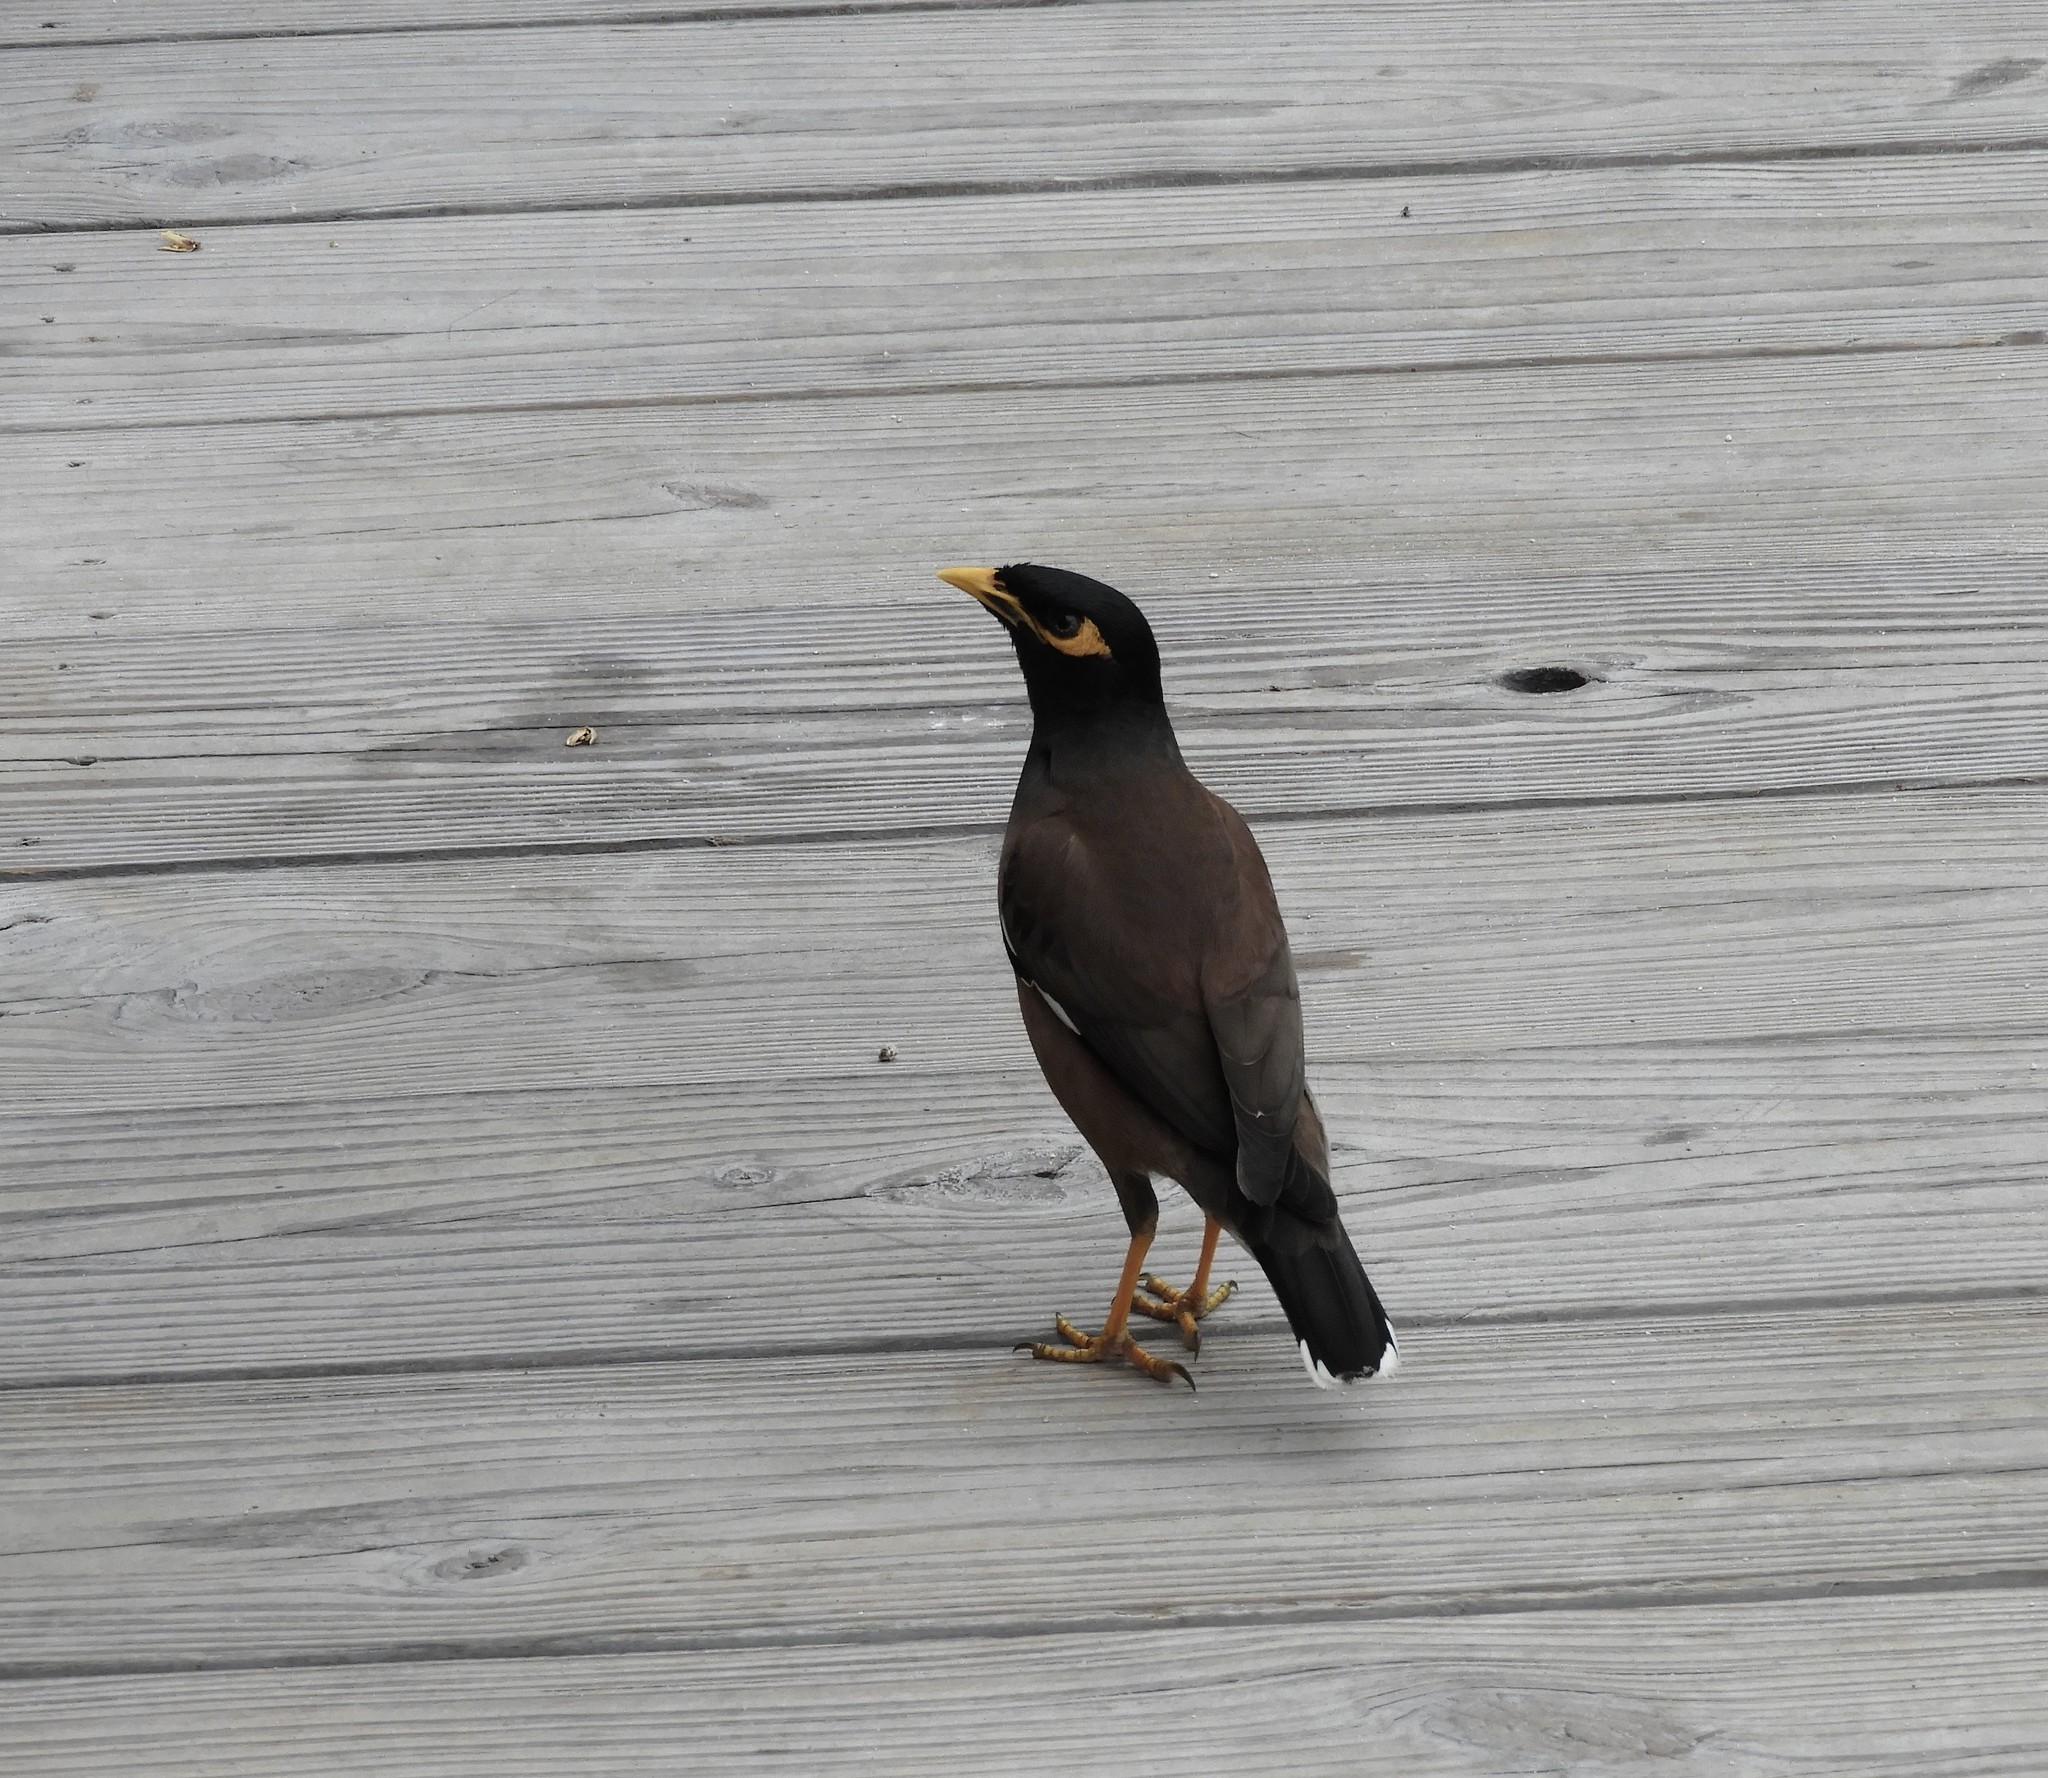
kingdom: Animalia
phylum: Chordata
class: Aves
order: Passeriformes
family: Sturnidae
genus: Acridotheres
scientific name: Acridotheres tristis
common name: Common myna
